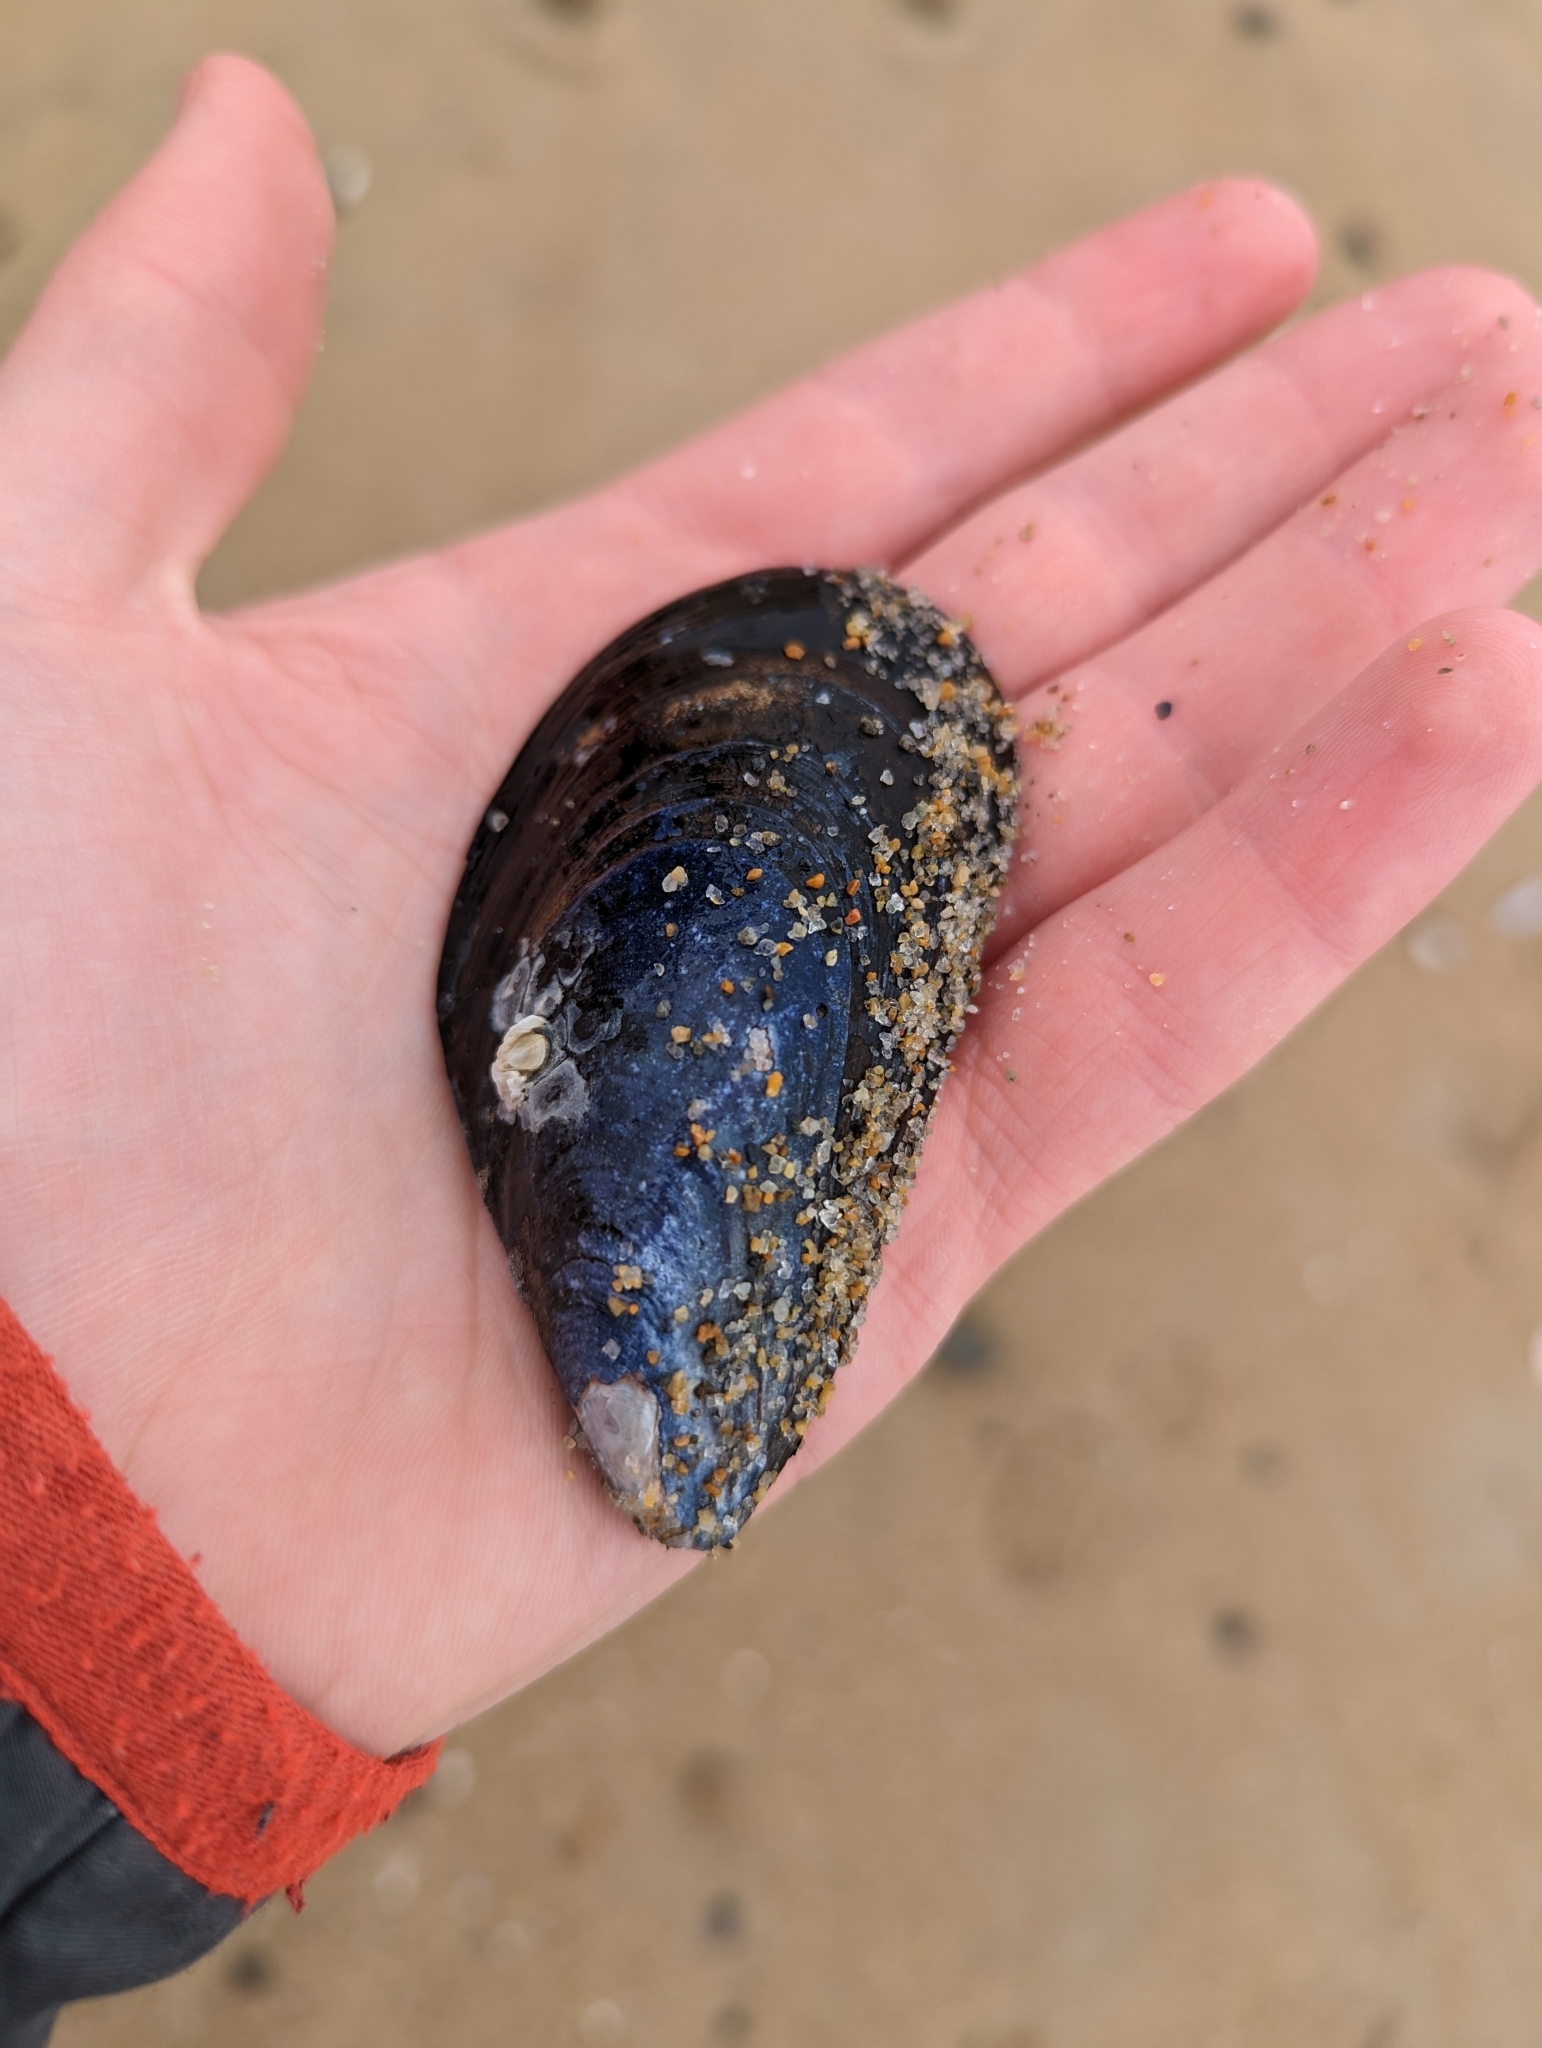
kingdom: Animalia
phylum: Mollusca
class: Bivalvia
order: Mytilida
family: Mytilidae
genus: Mytilus
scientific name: Mytilus edulis
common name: Blue mussel
